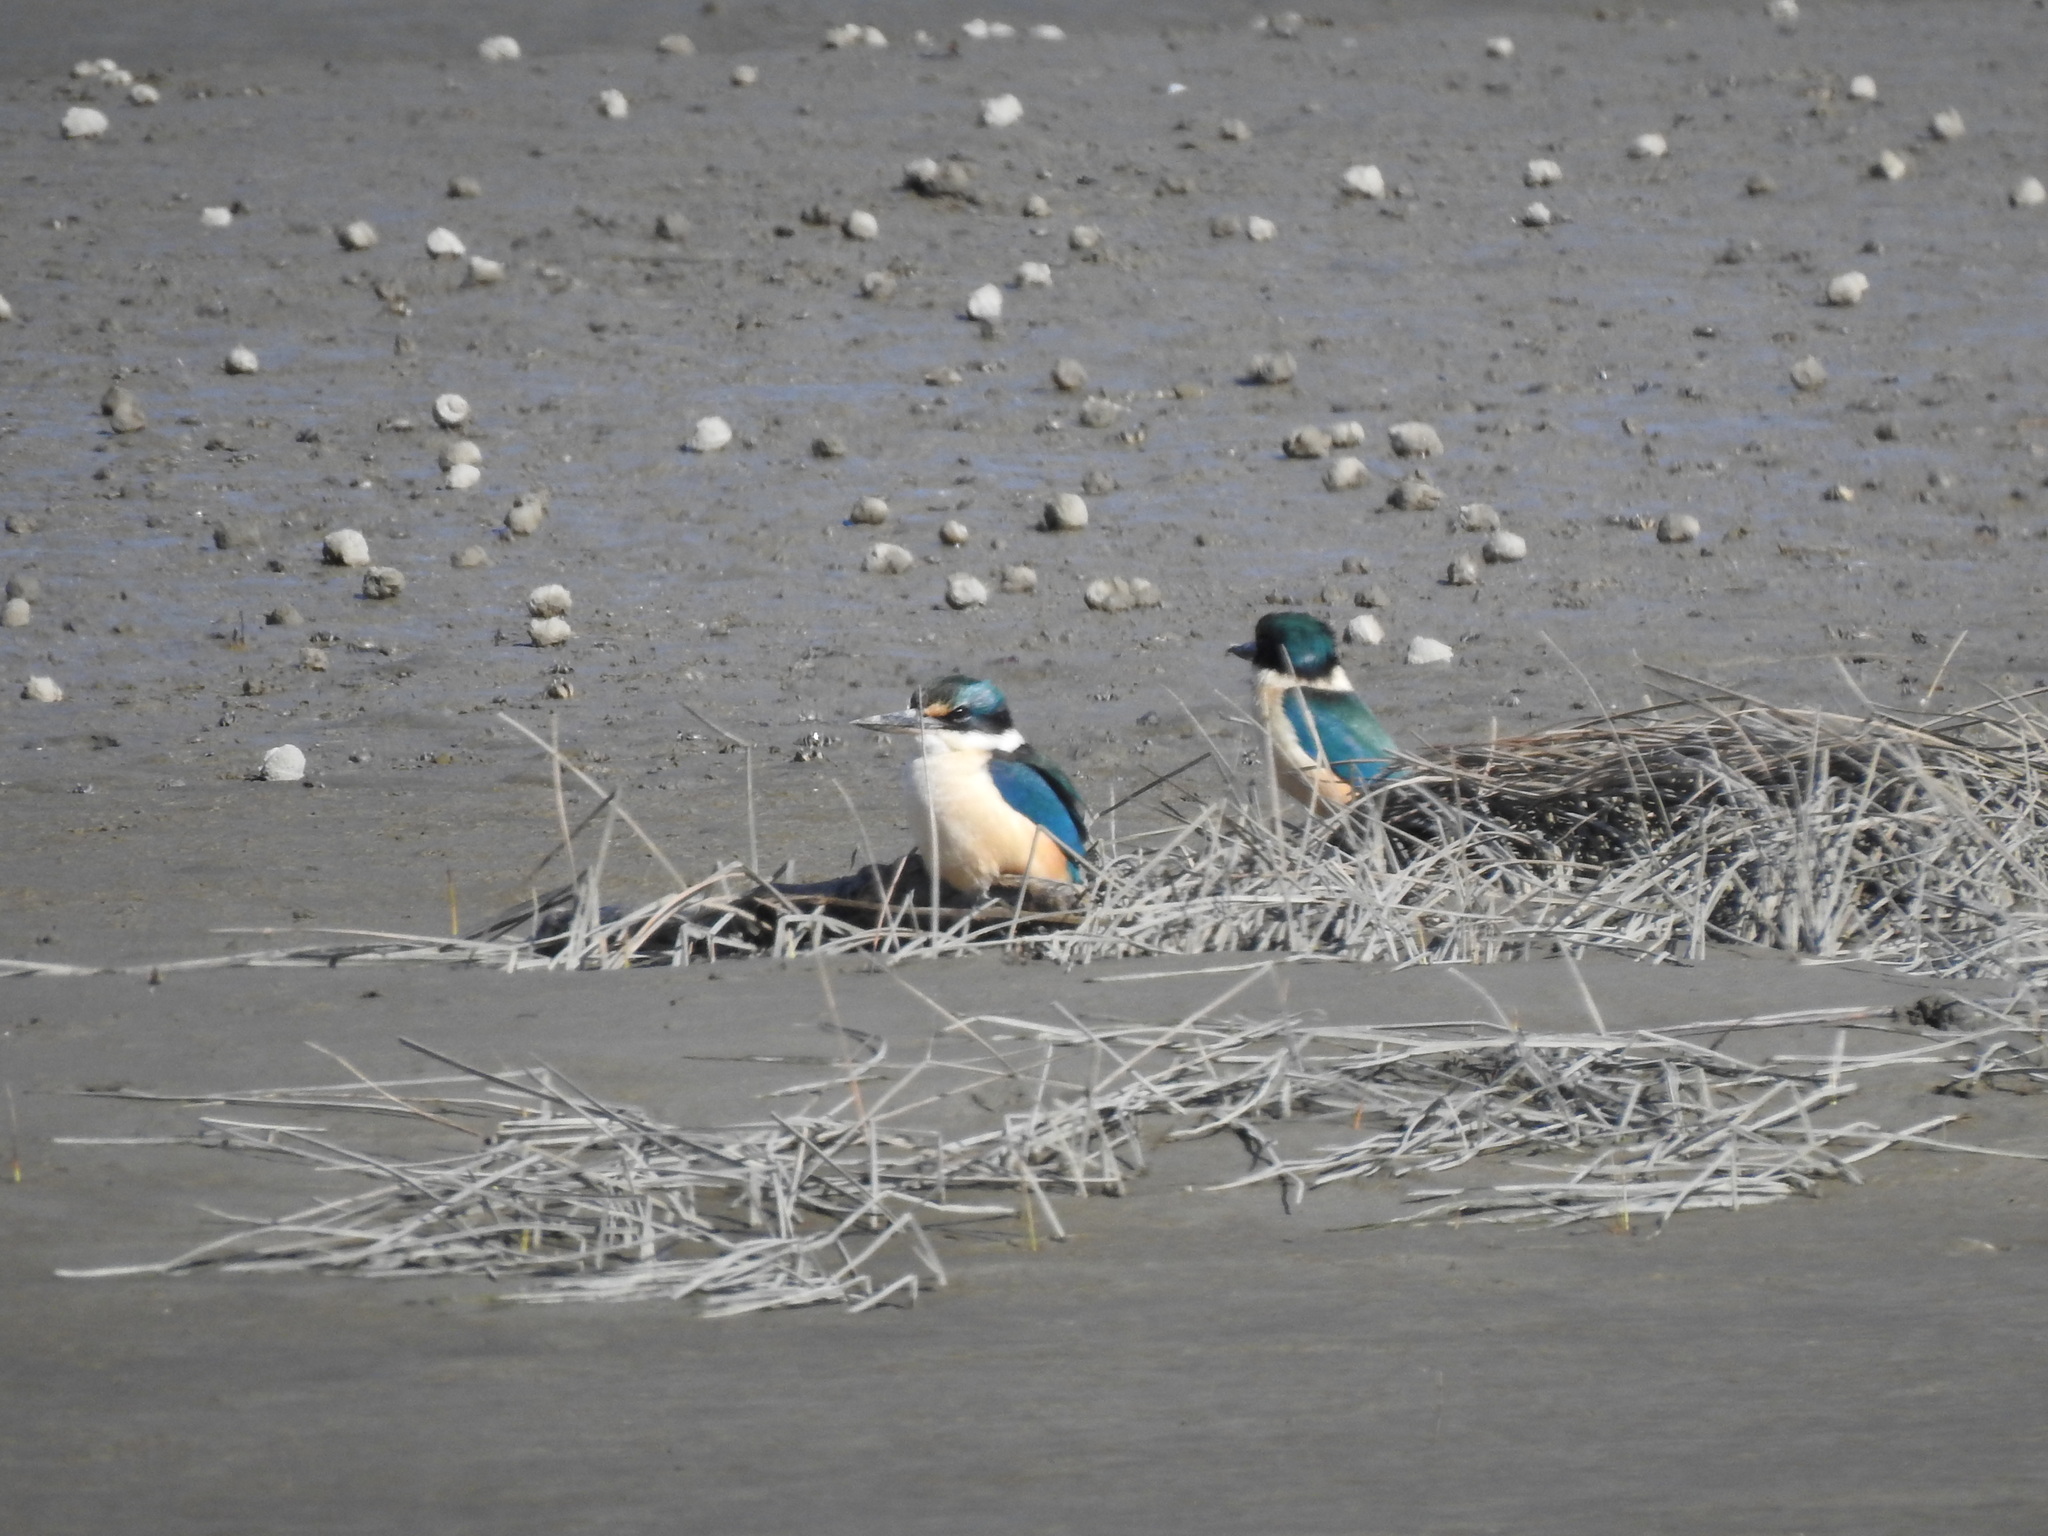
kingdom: Animalia
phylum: Chordata
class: Aves
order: Coraciiformes
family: Alcedinidae
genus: Todiramphus
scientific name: Todiramphus sanctus
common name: Sacred kingfisher
